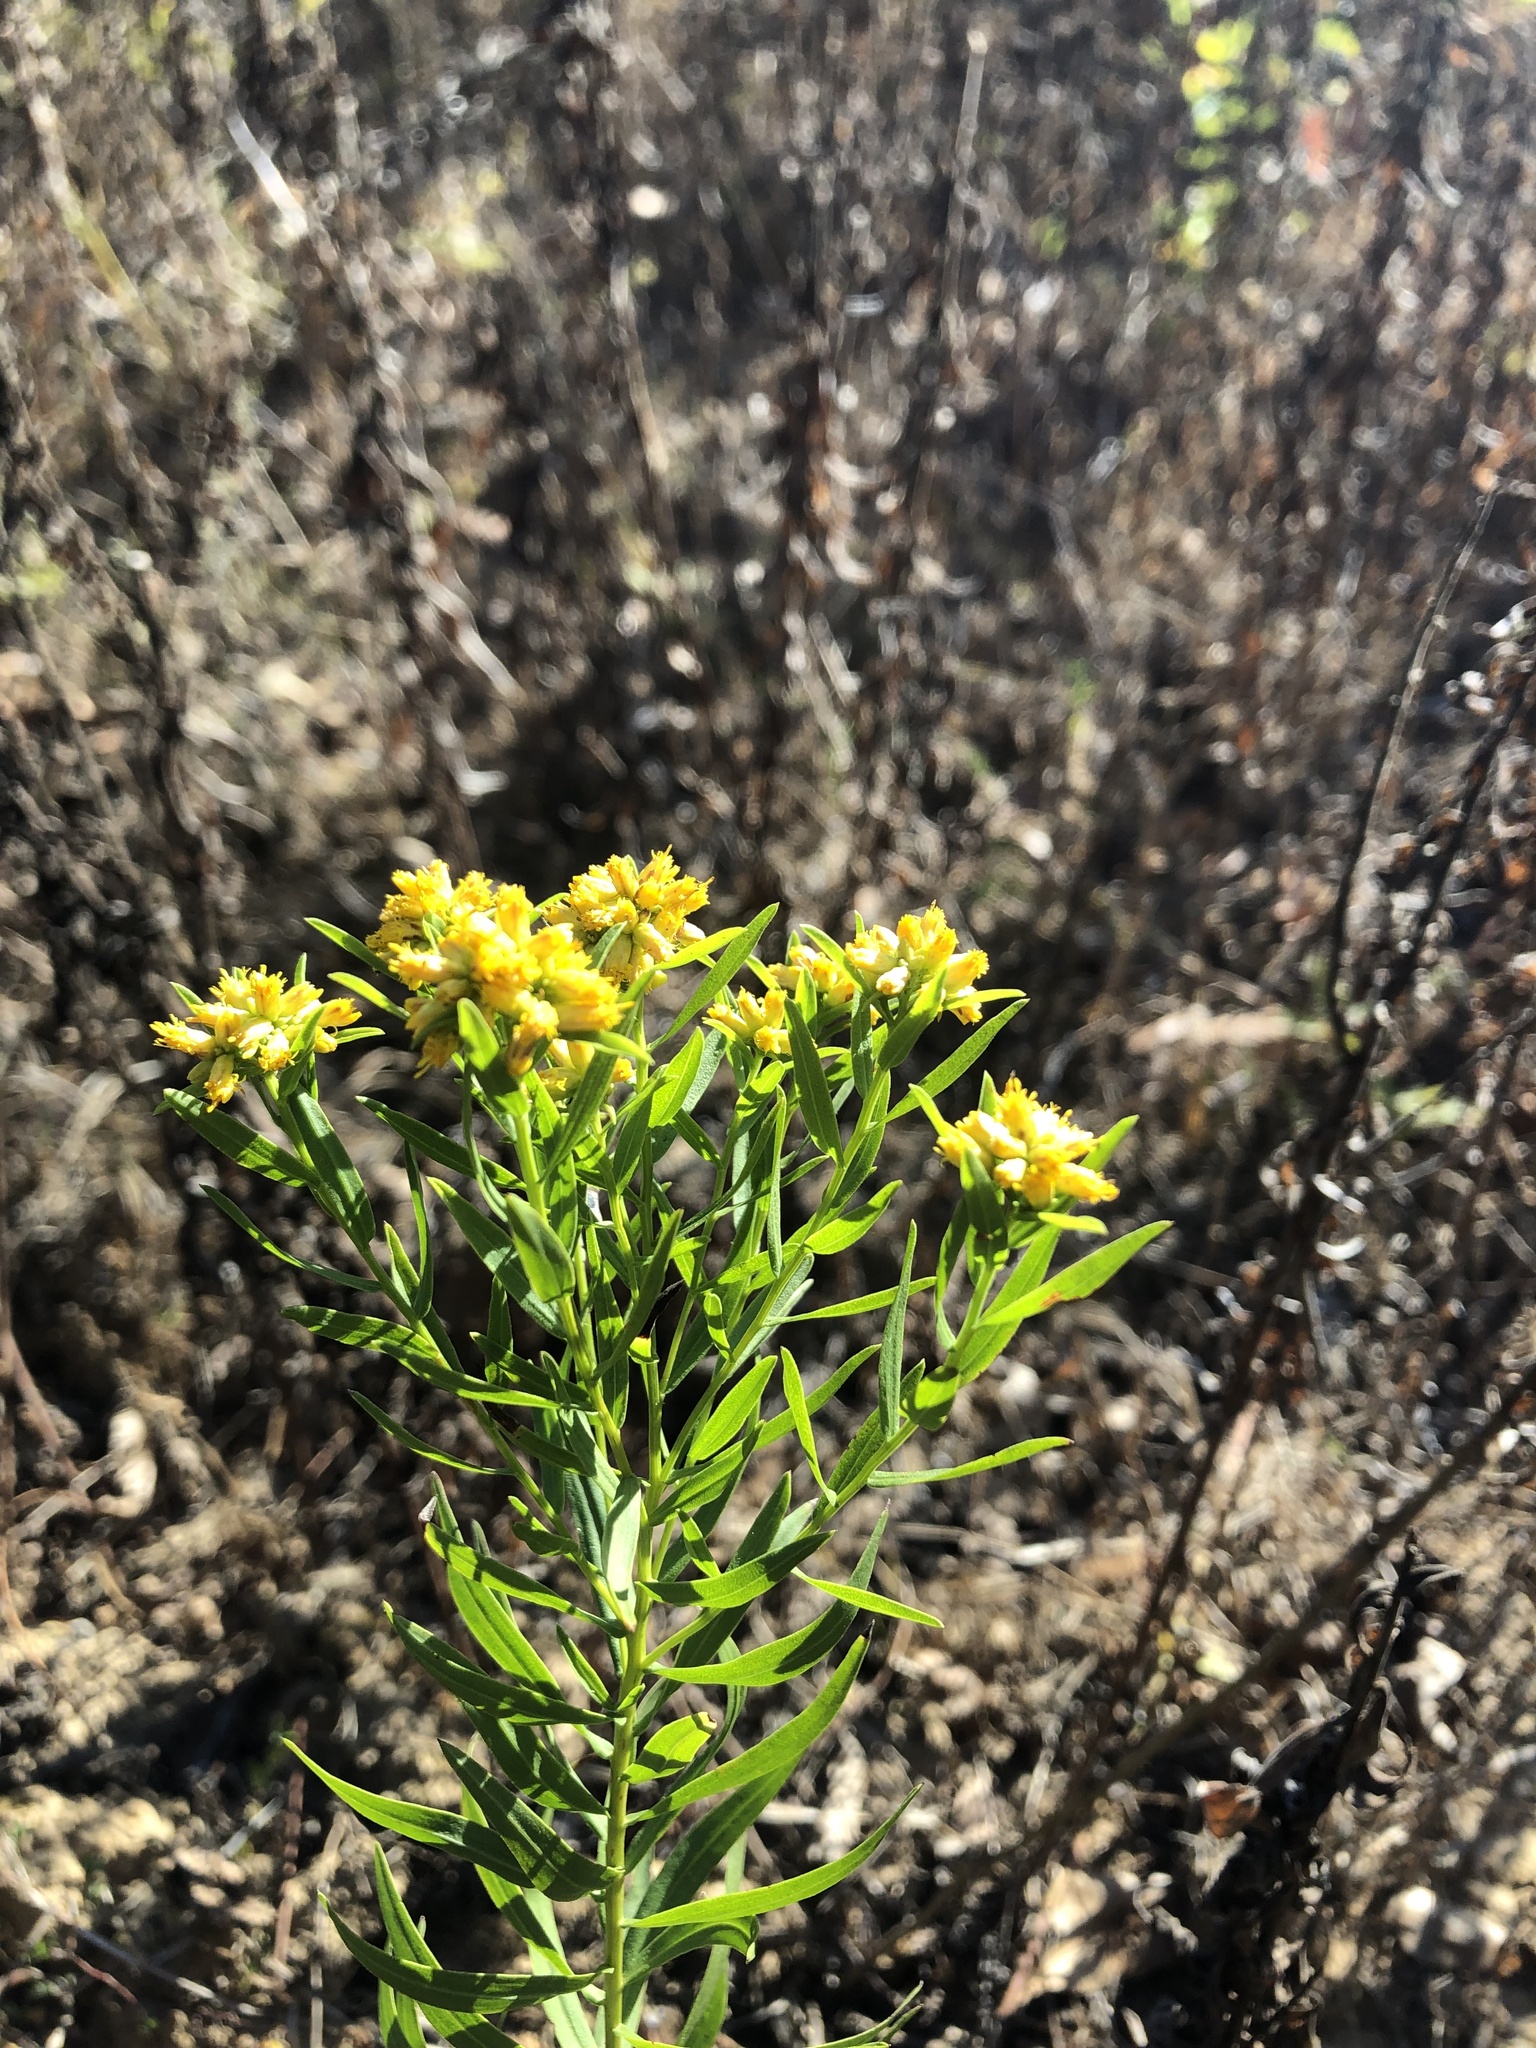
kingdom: Plantae
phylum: Tracheophyta
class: Magnoliopsida
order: Asterales
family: Asteraceae
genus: Euthamia
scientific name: Euthamia leptocephala
